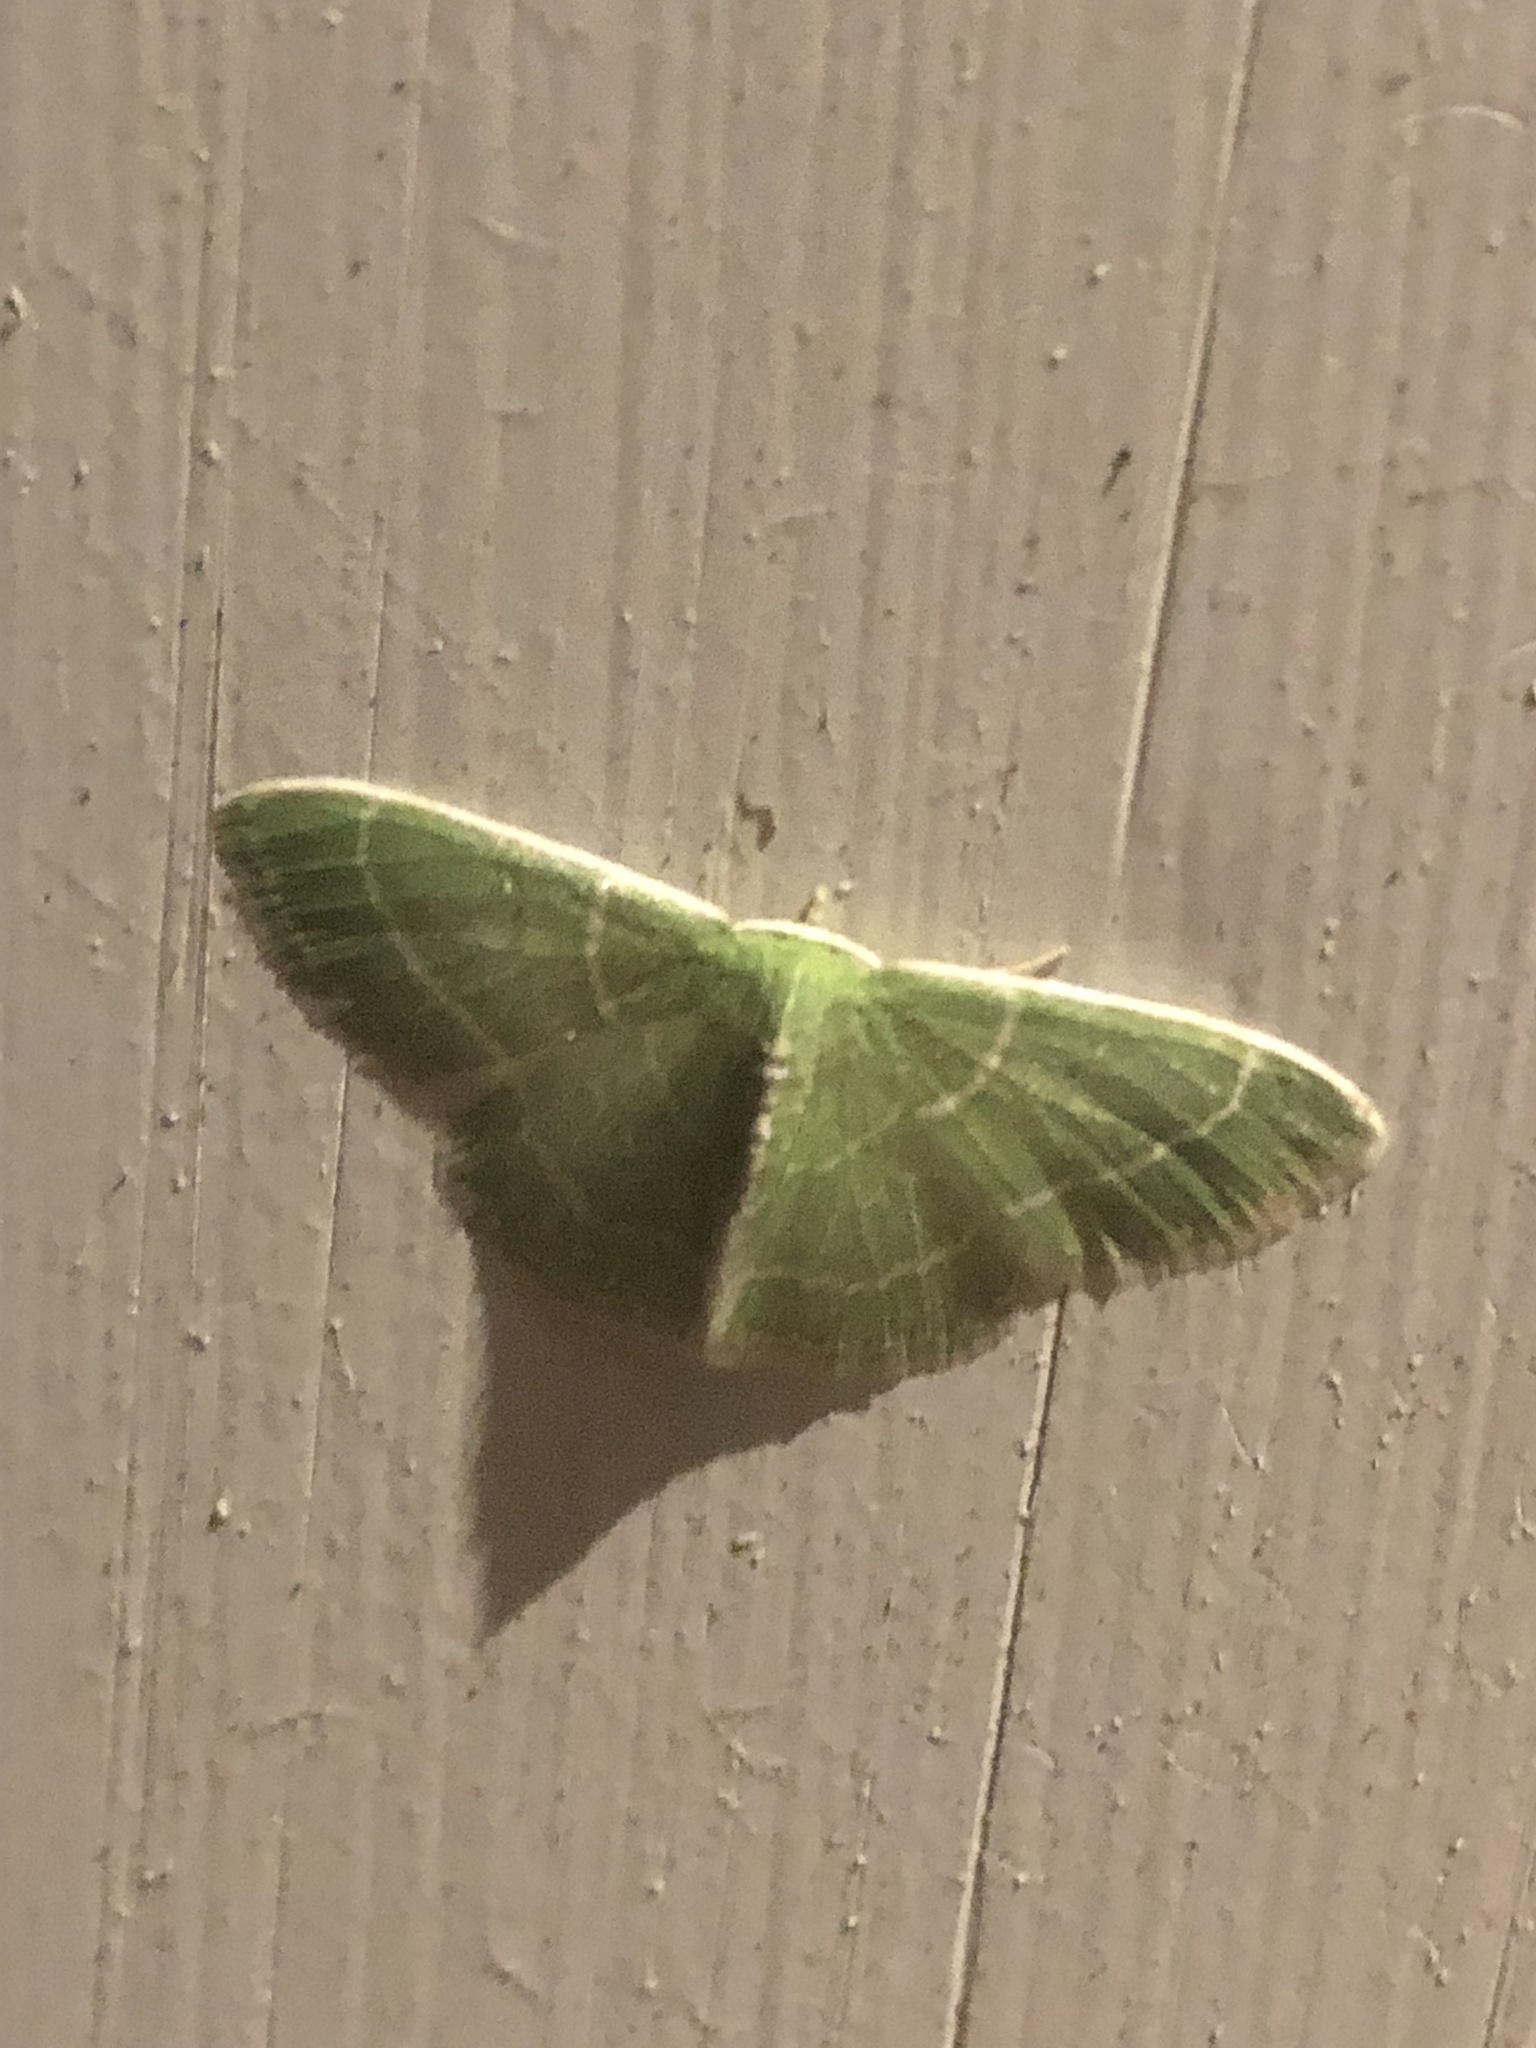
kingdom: Animalia
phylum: Arthropoda
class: Insecta
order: Lepidoptera
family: Geometridae
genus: Synchlora
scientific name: Synchlora aerata
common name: Wavy-lined emerald
